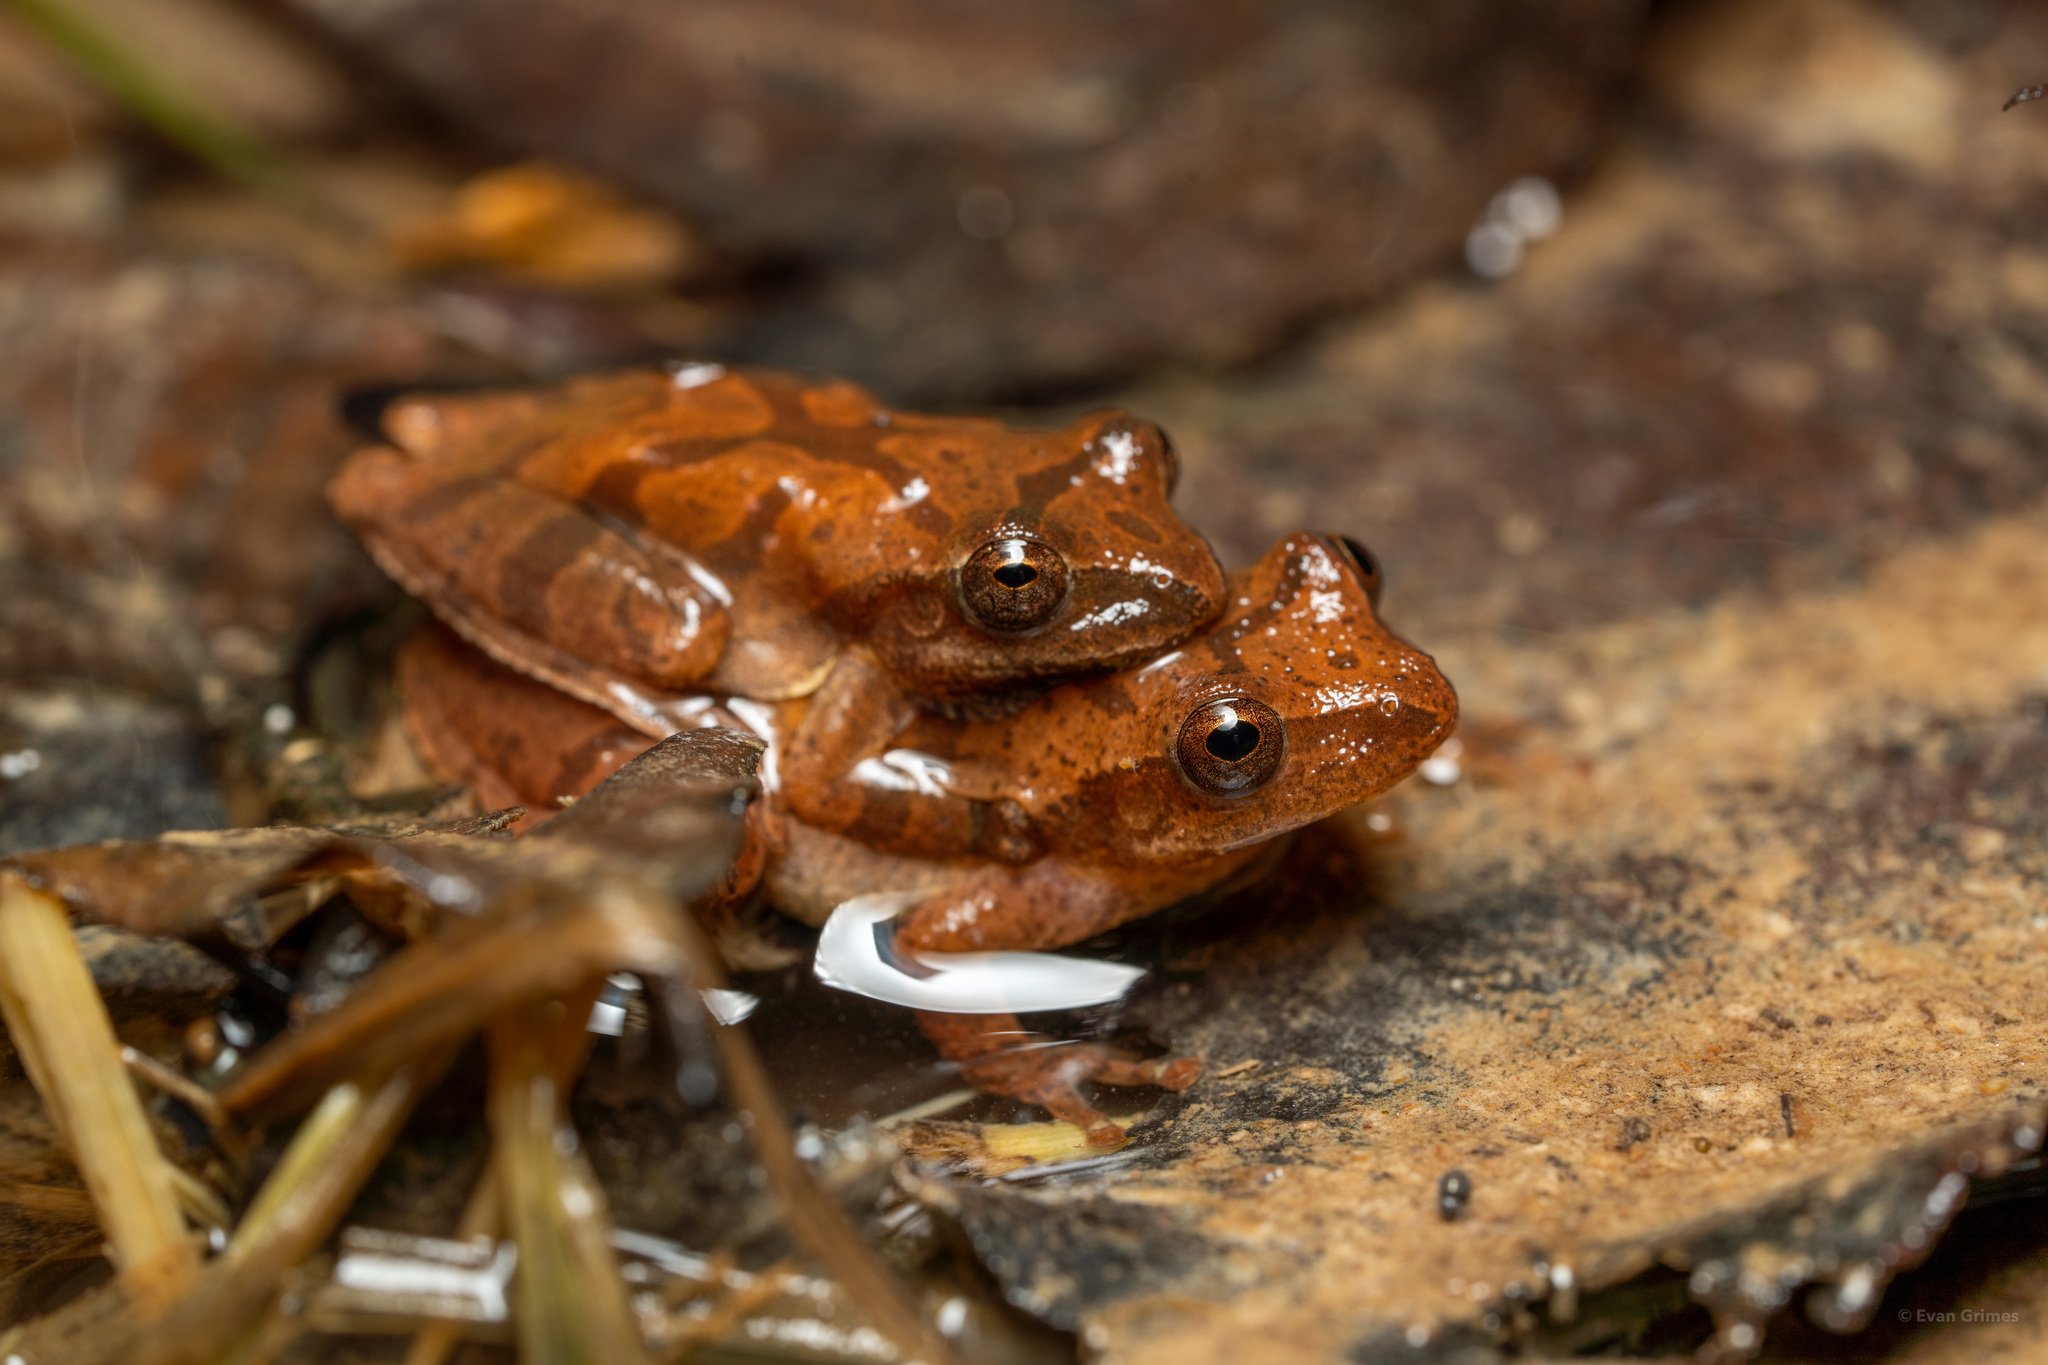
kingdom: Animalia
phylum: Chordata
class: Amphibia
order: Anura
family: Hylidae
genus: Pseudacris
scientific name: Pseudacris crucifer
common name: Spring peeper
